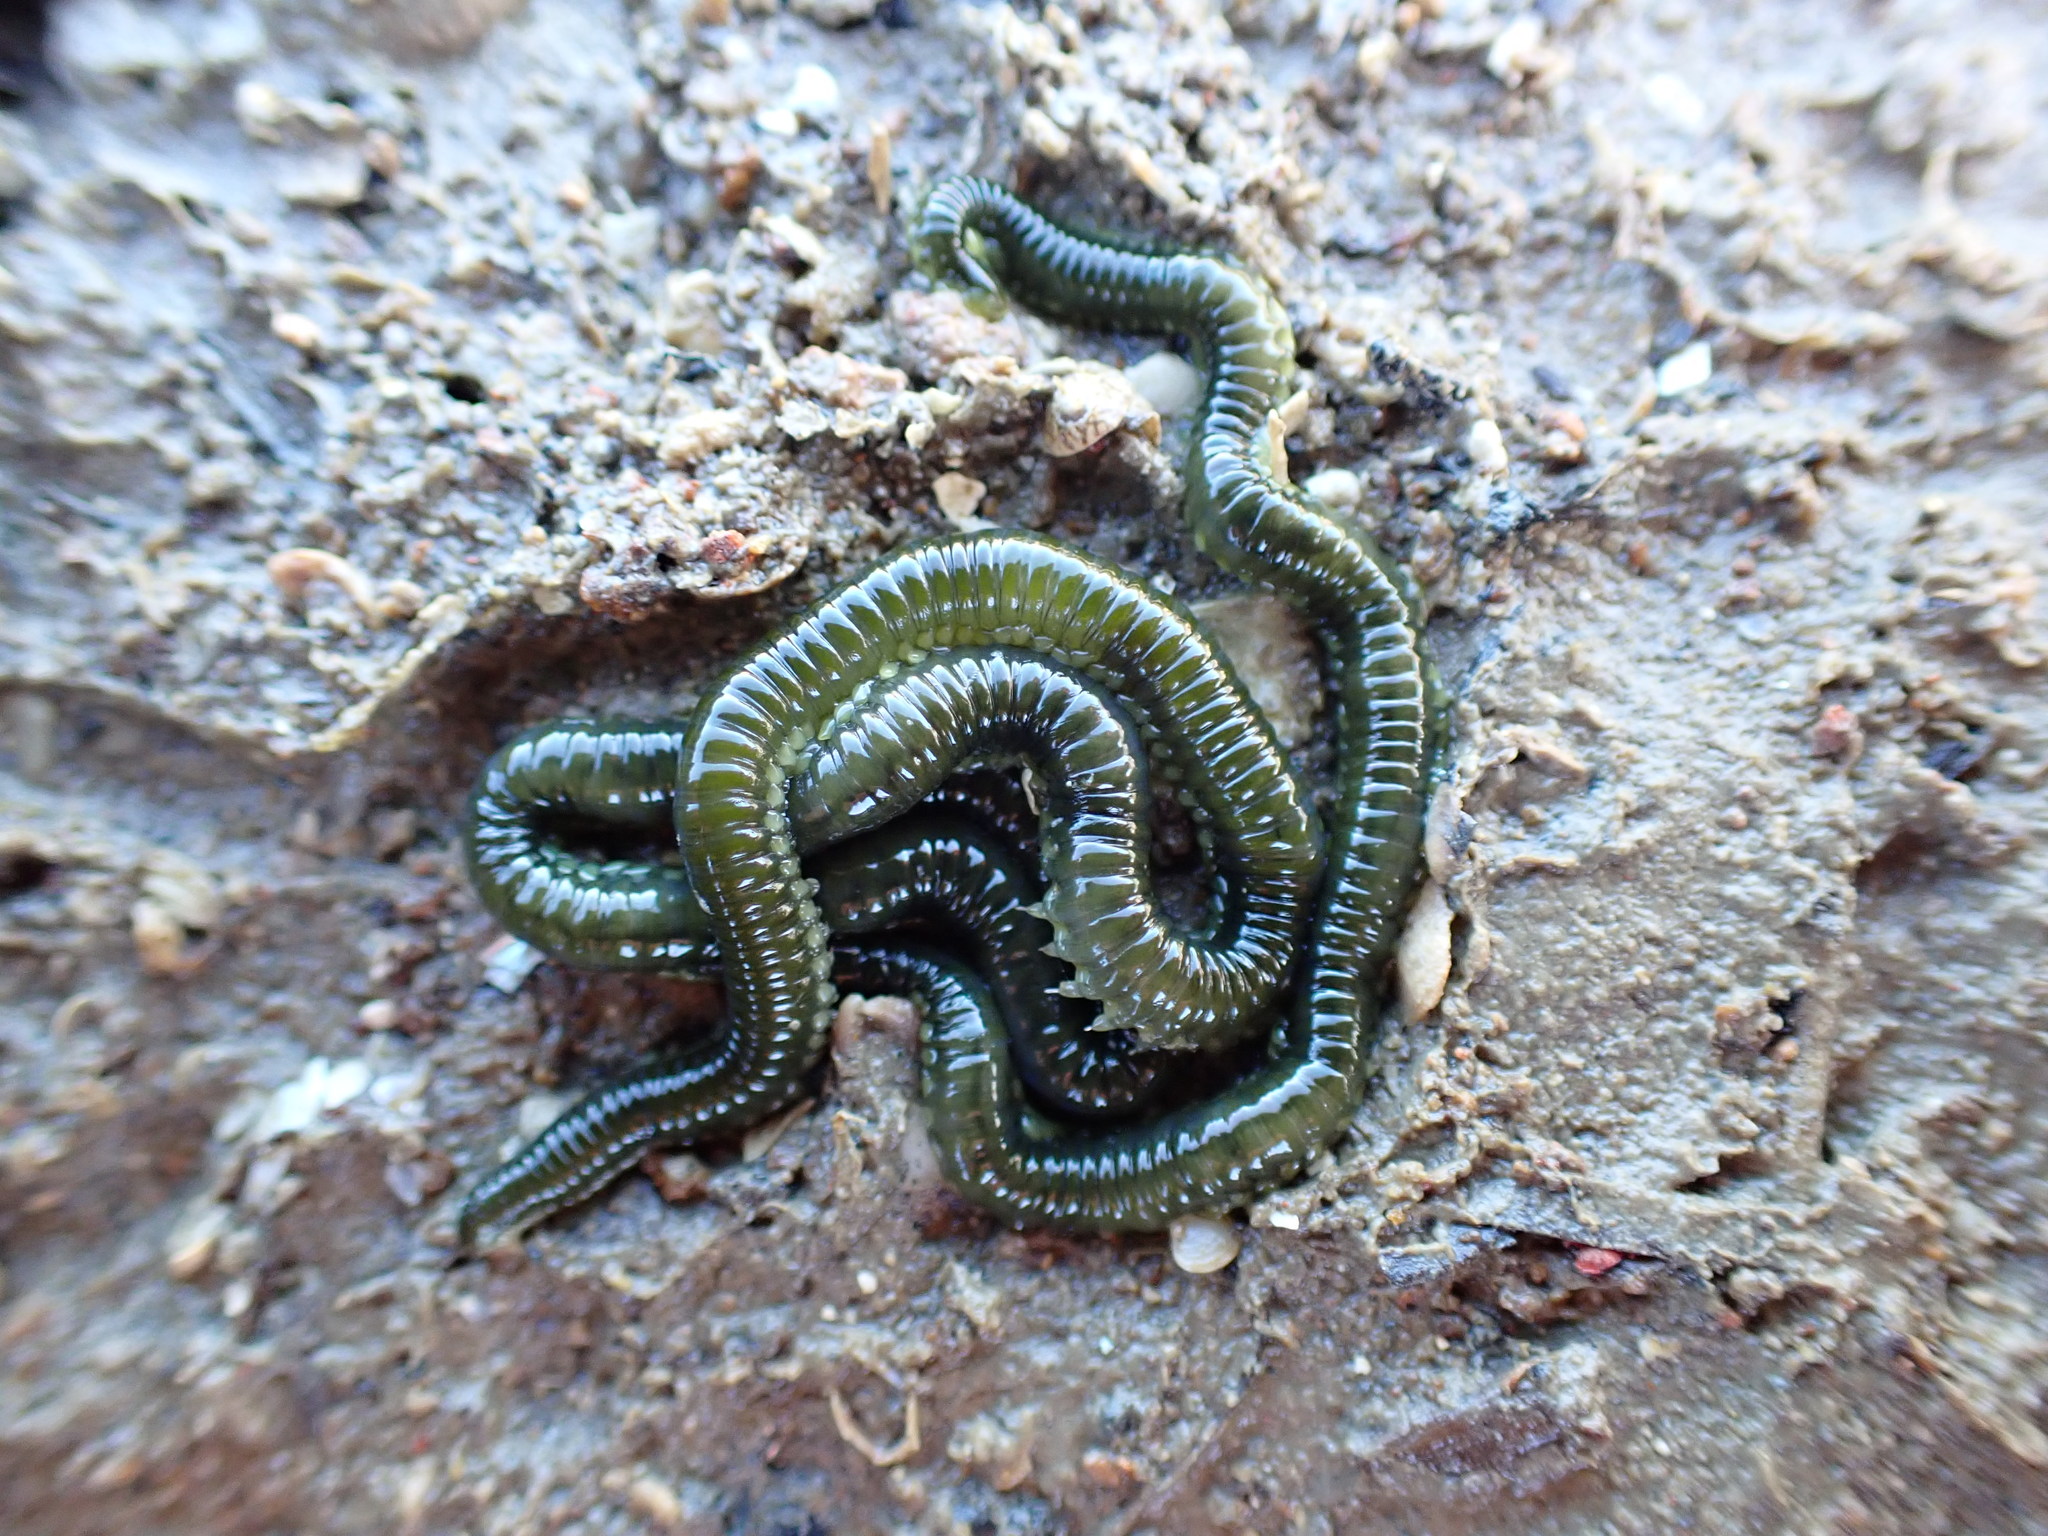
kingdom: Animalia
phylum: Annelida
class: Polychaeta
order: Phyllodocida
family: Phyllodocidae
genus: Eulalia
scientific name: Eulalia microphylla
